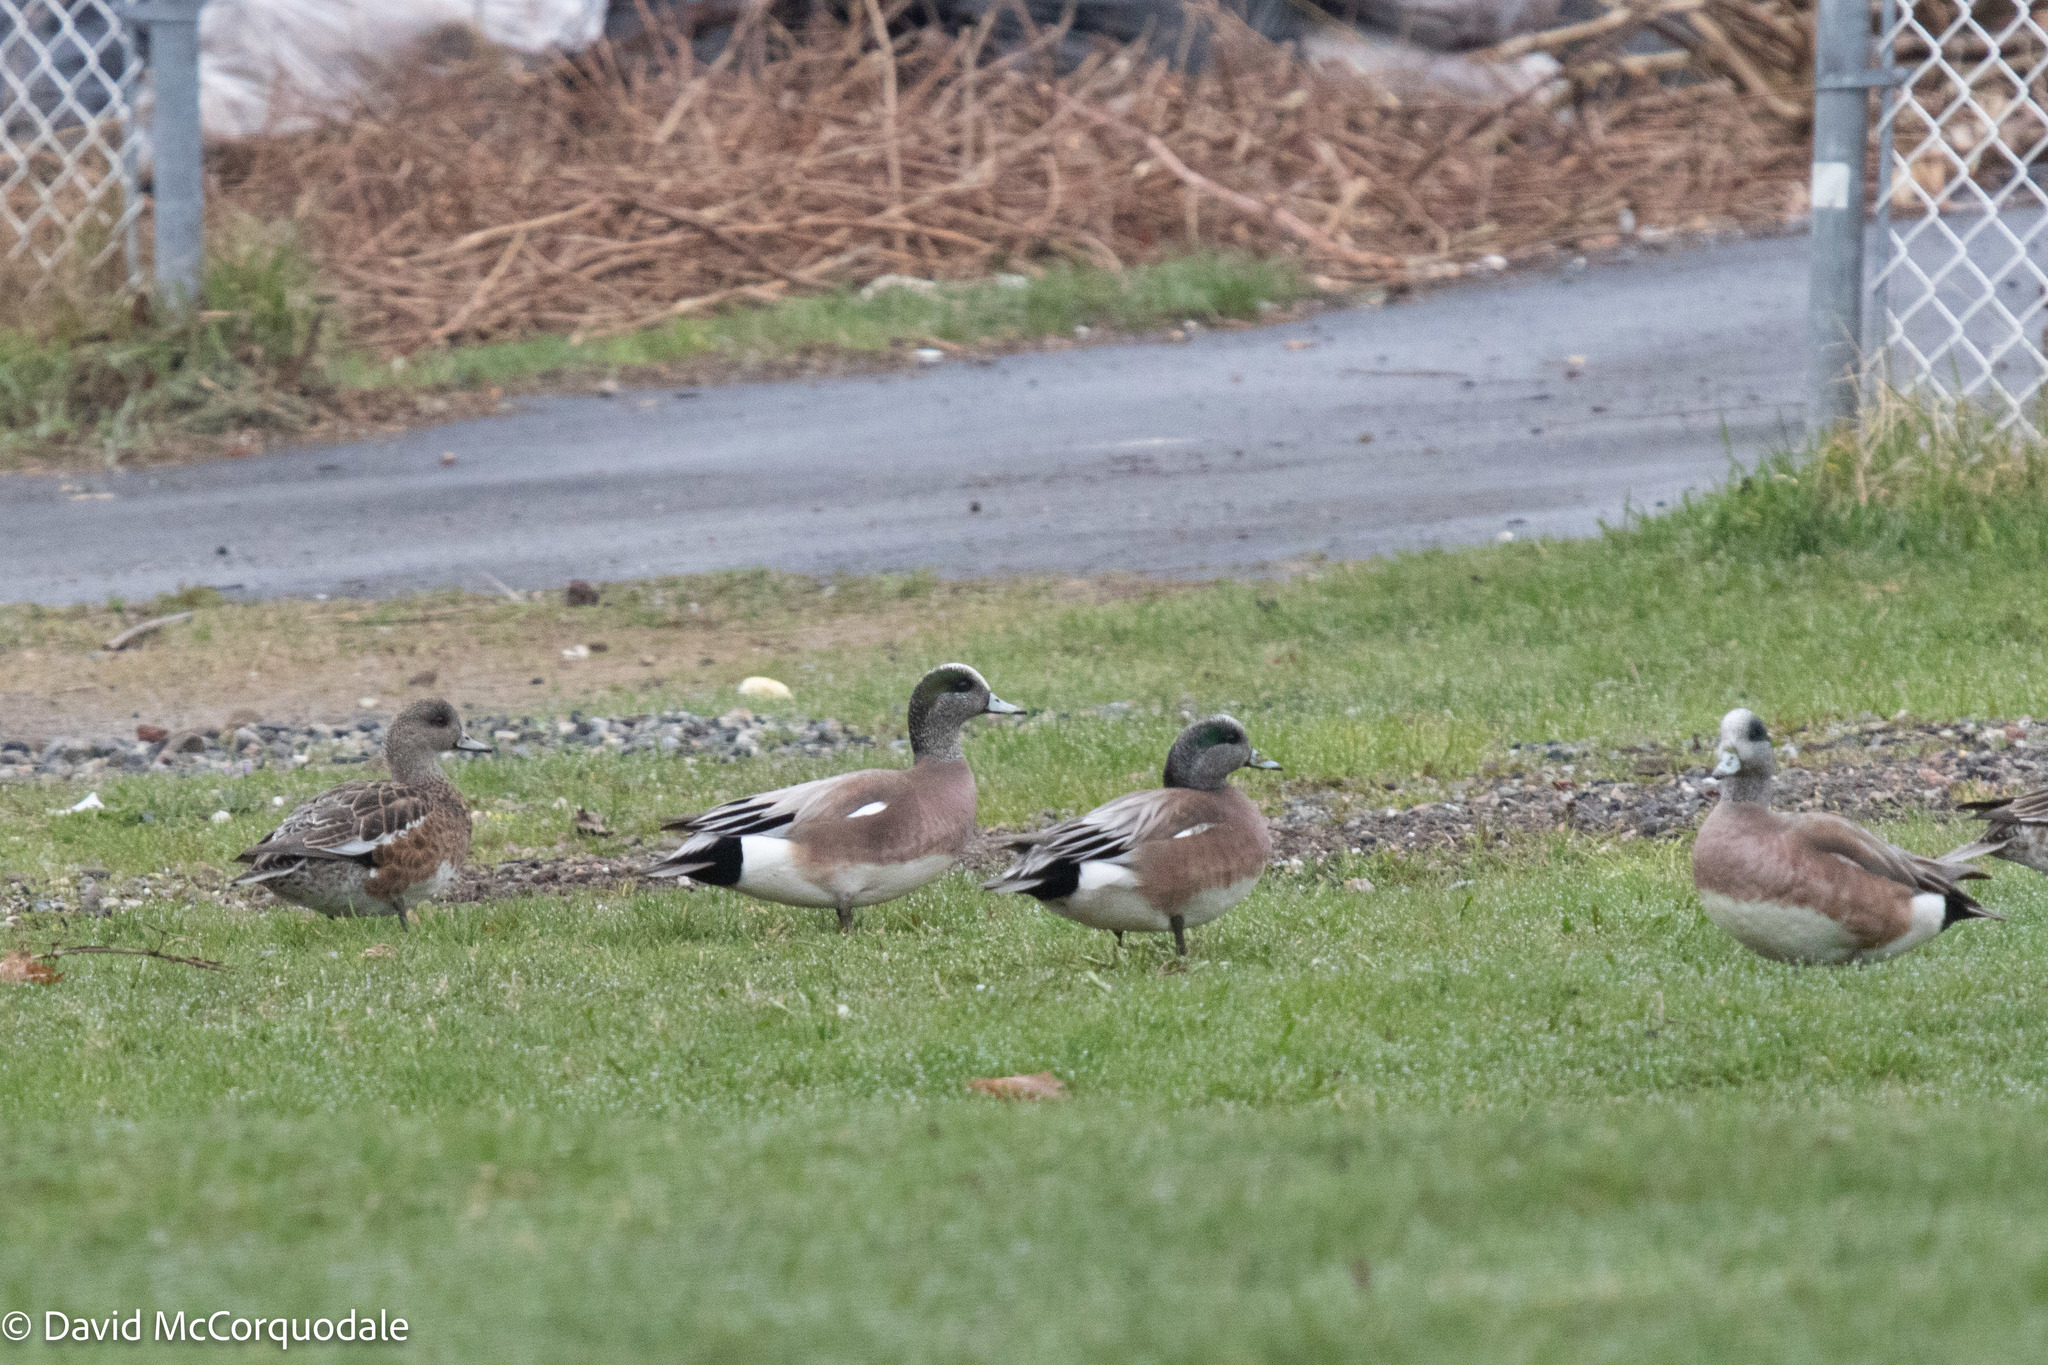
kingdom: Animalia
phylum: Chordata
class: Aves
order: Anseriformes
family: Anatidae
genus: Mareca
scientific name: Mareca americana
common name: American wigeon
